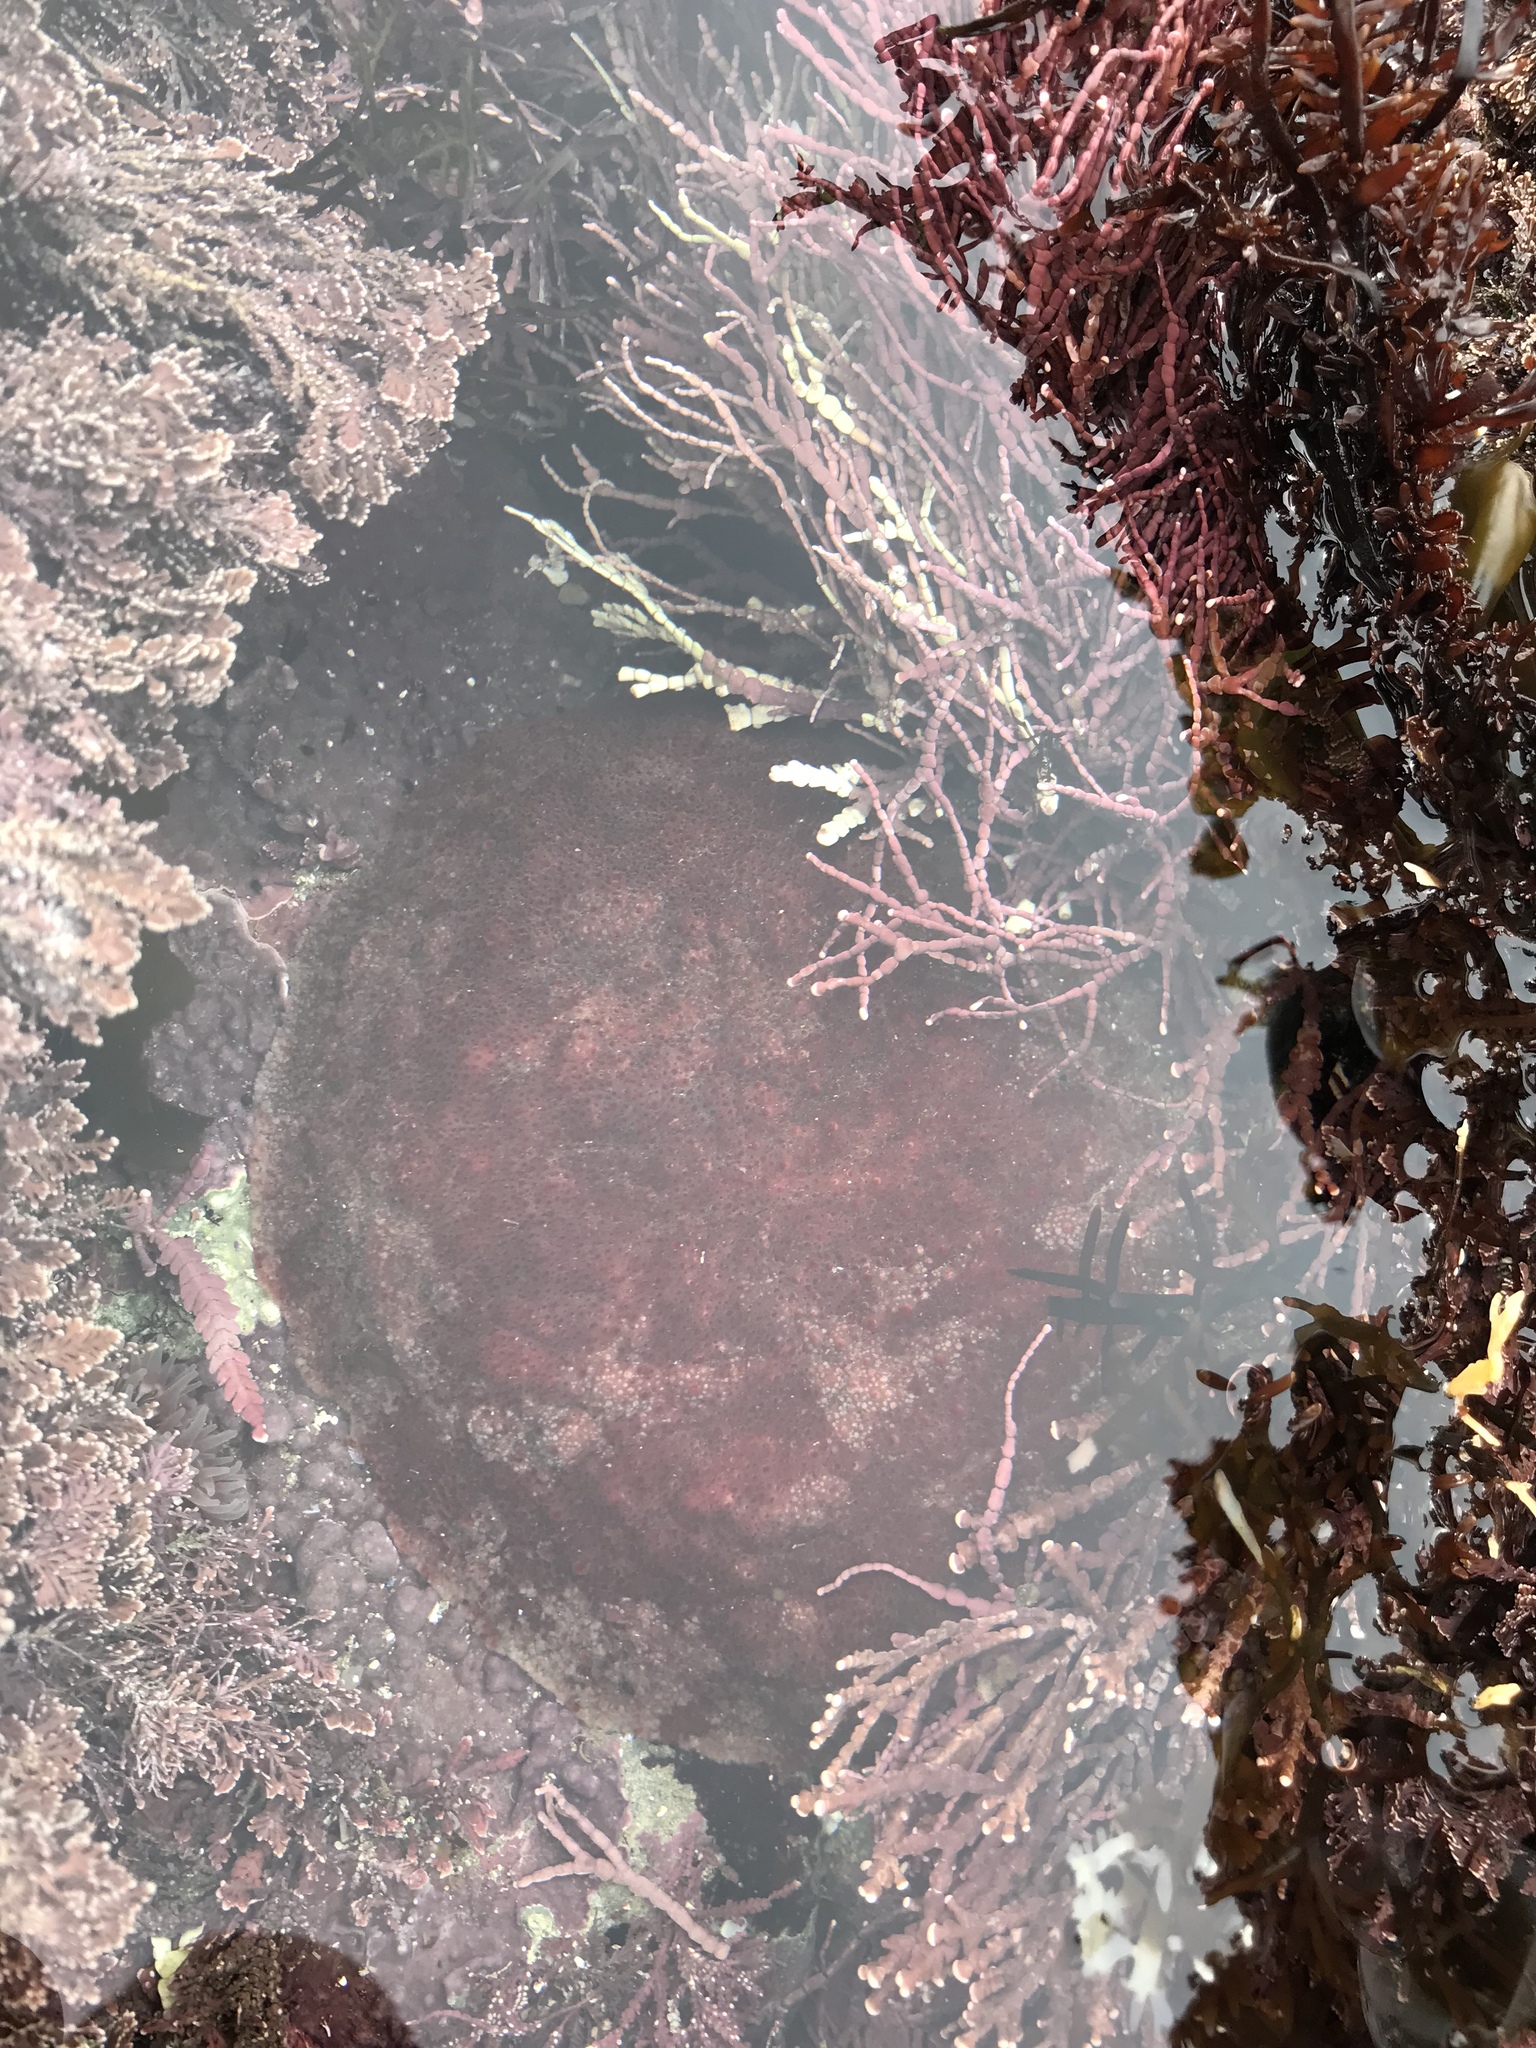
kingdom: Animalia
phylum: Mollusca
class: Polyplacophora
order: Chitonida
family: Acanthochitonidae
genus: Cryptochiton
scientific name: Cryptochiton stelleri
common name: Giant pacific chiton
